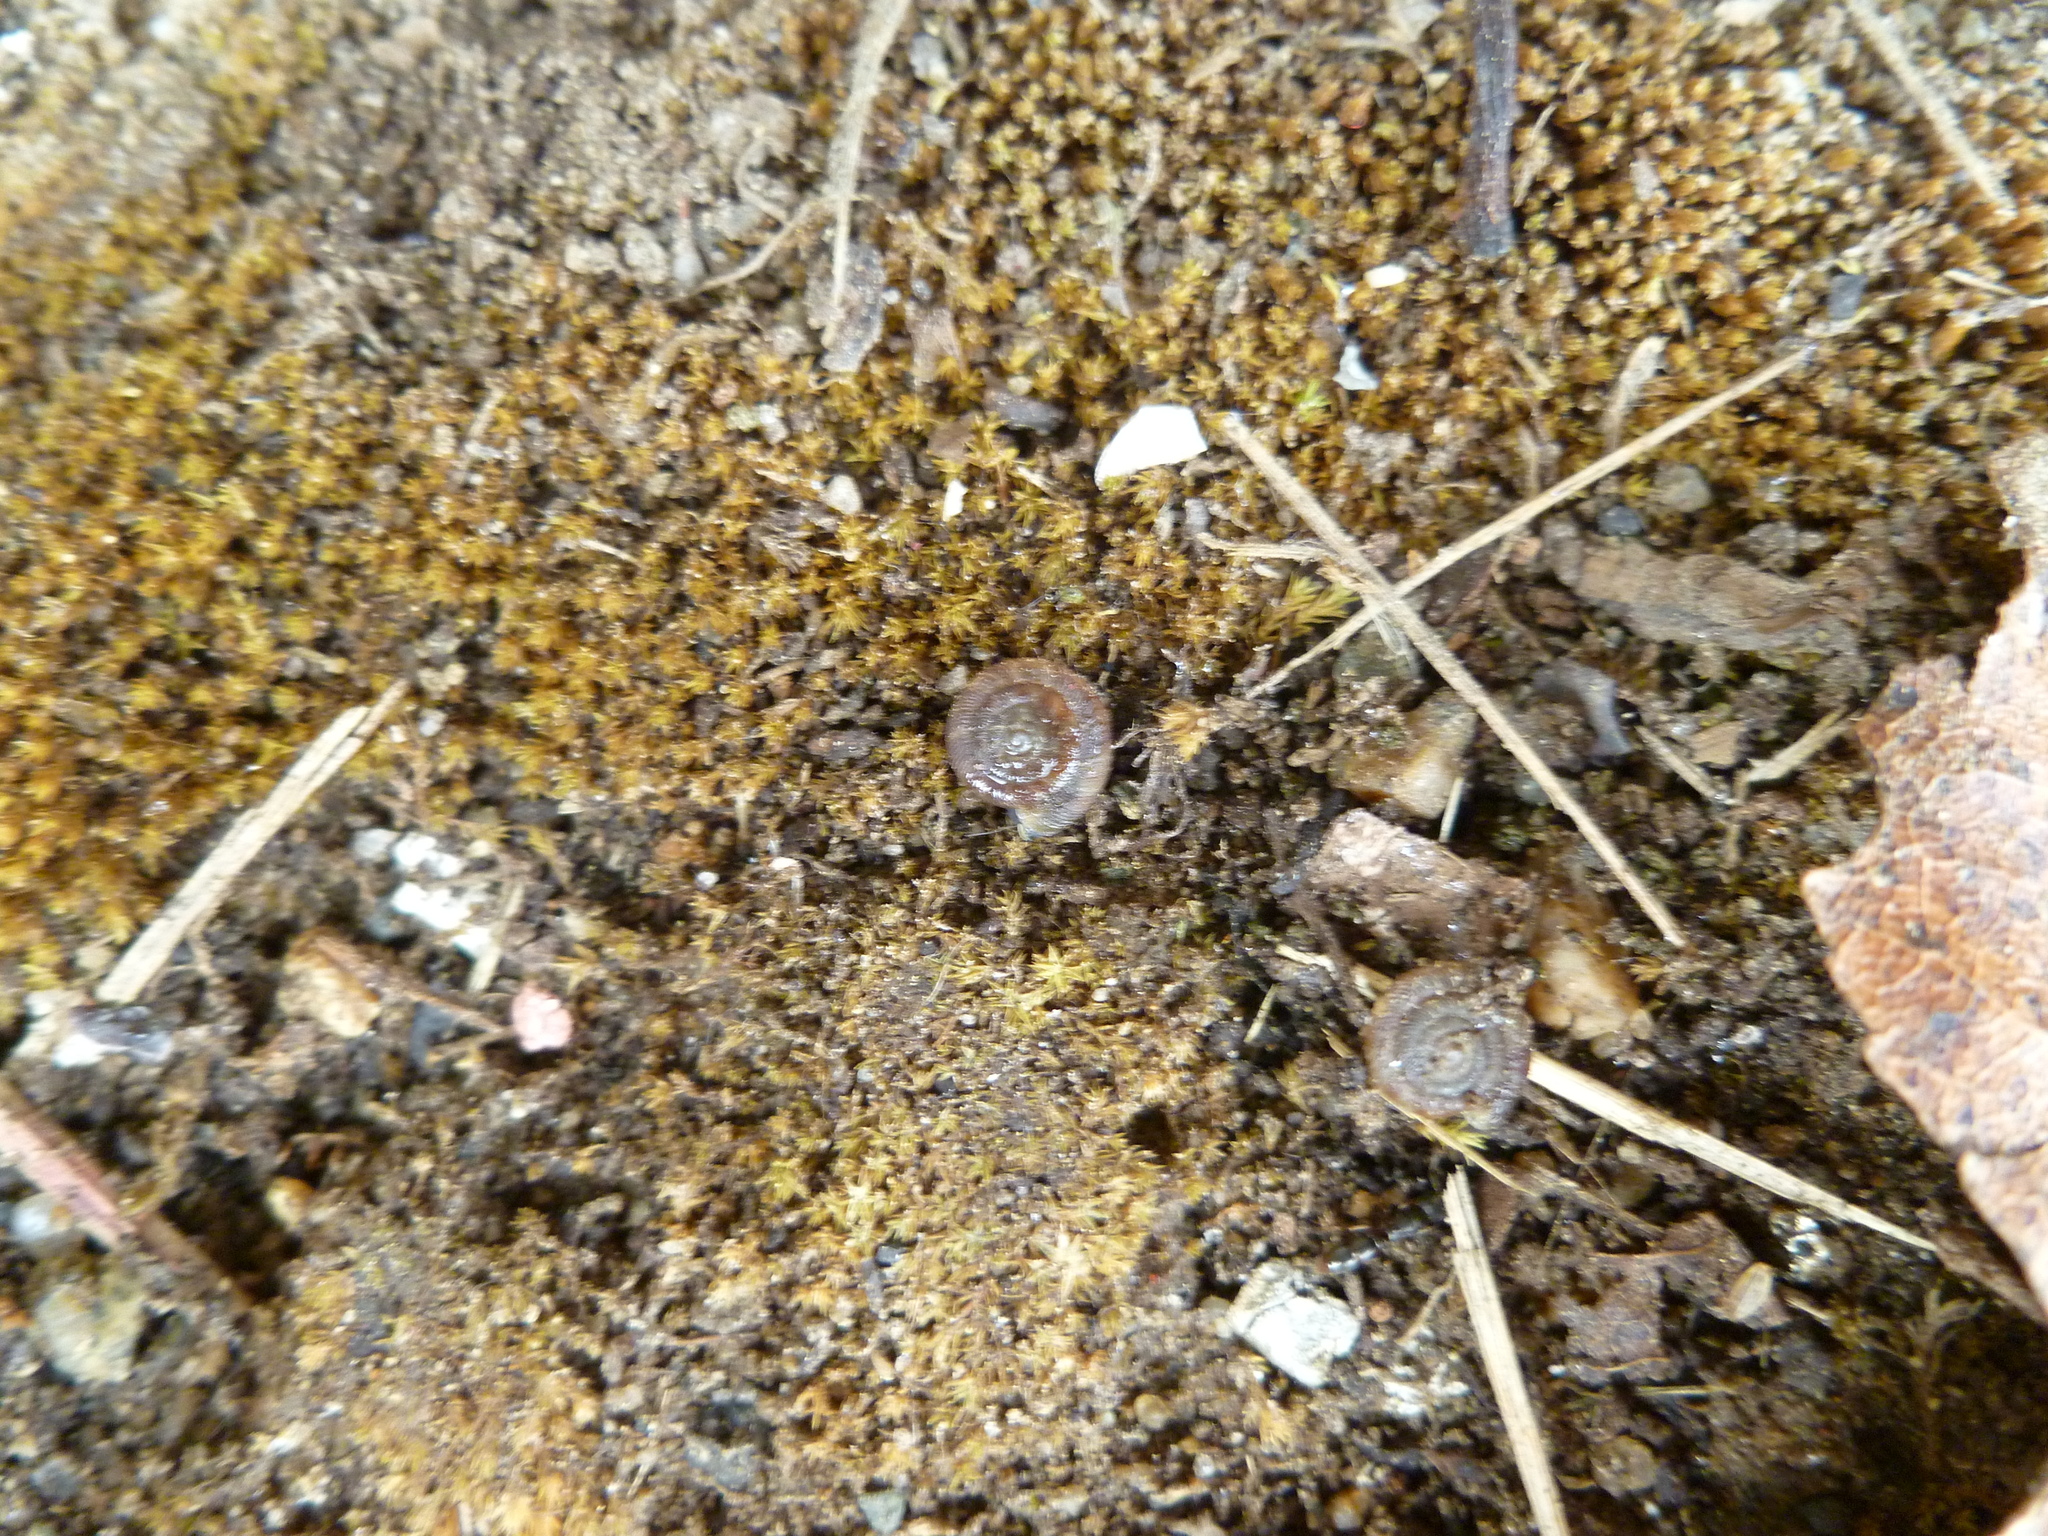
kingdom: Animalia
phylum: Mollusca
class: Gastropoda
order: Stylommatophora
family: Discidae
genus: Discus
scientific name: Discus rotundatus
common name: Rounded snail
